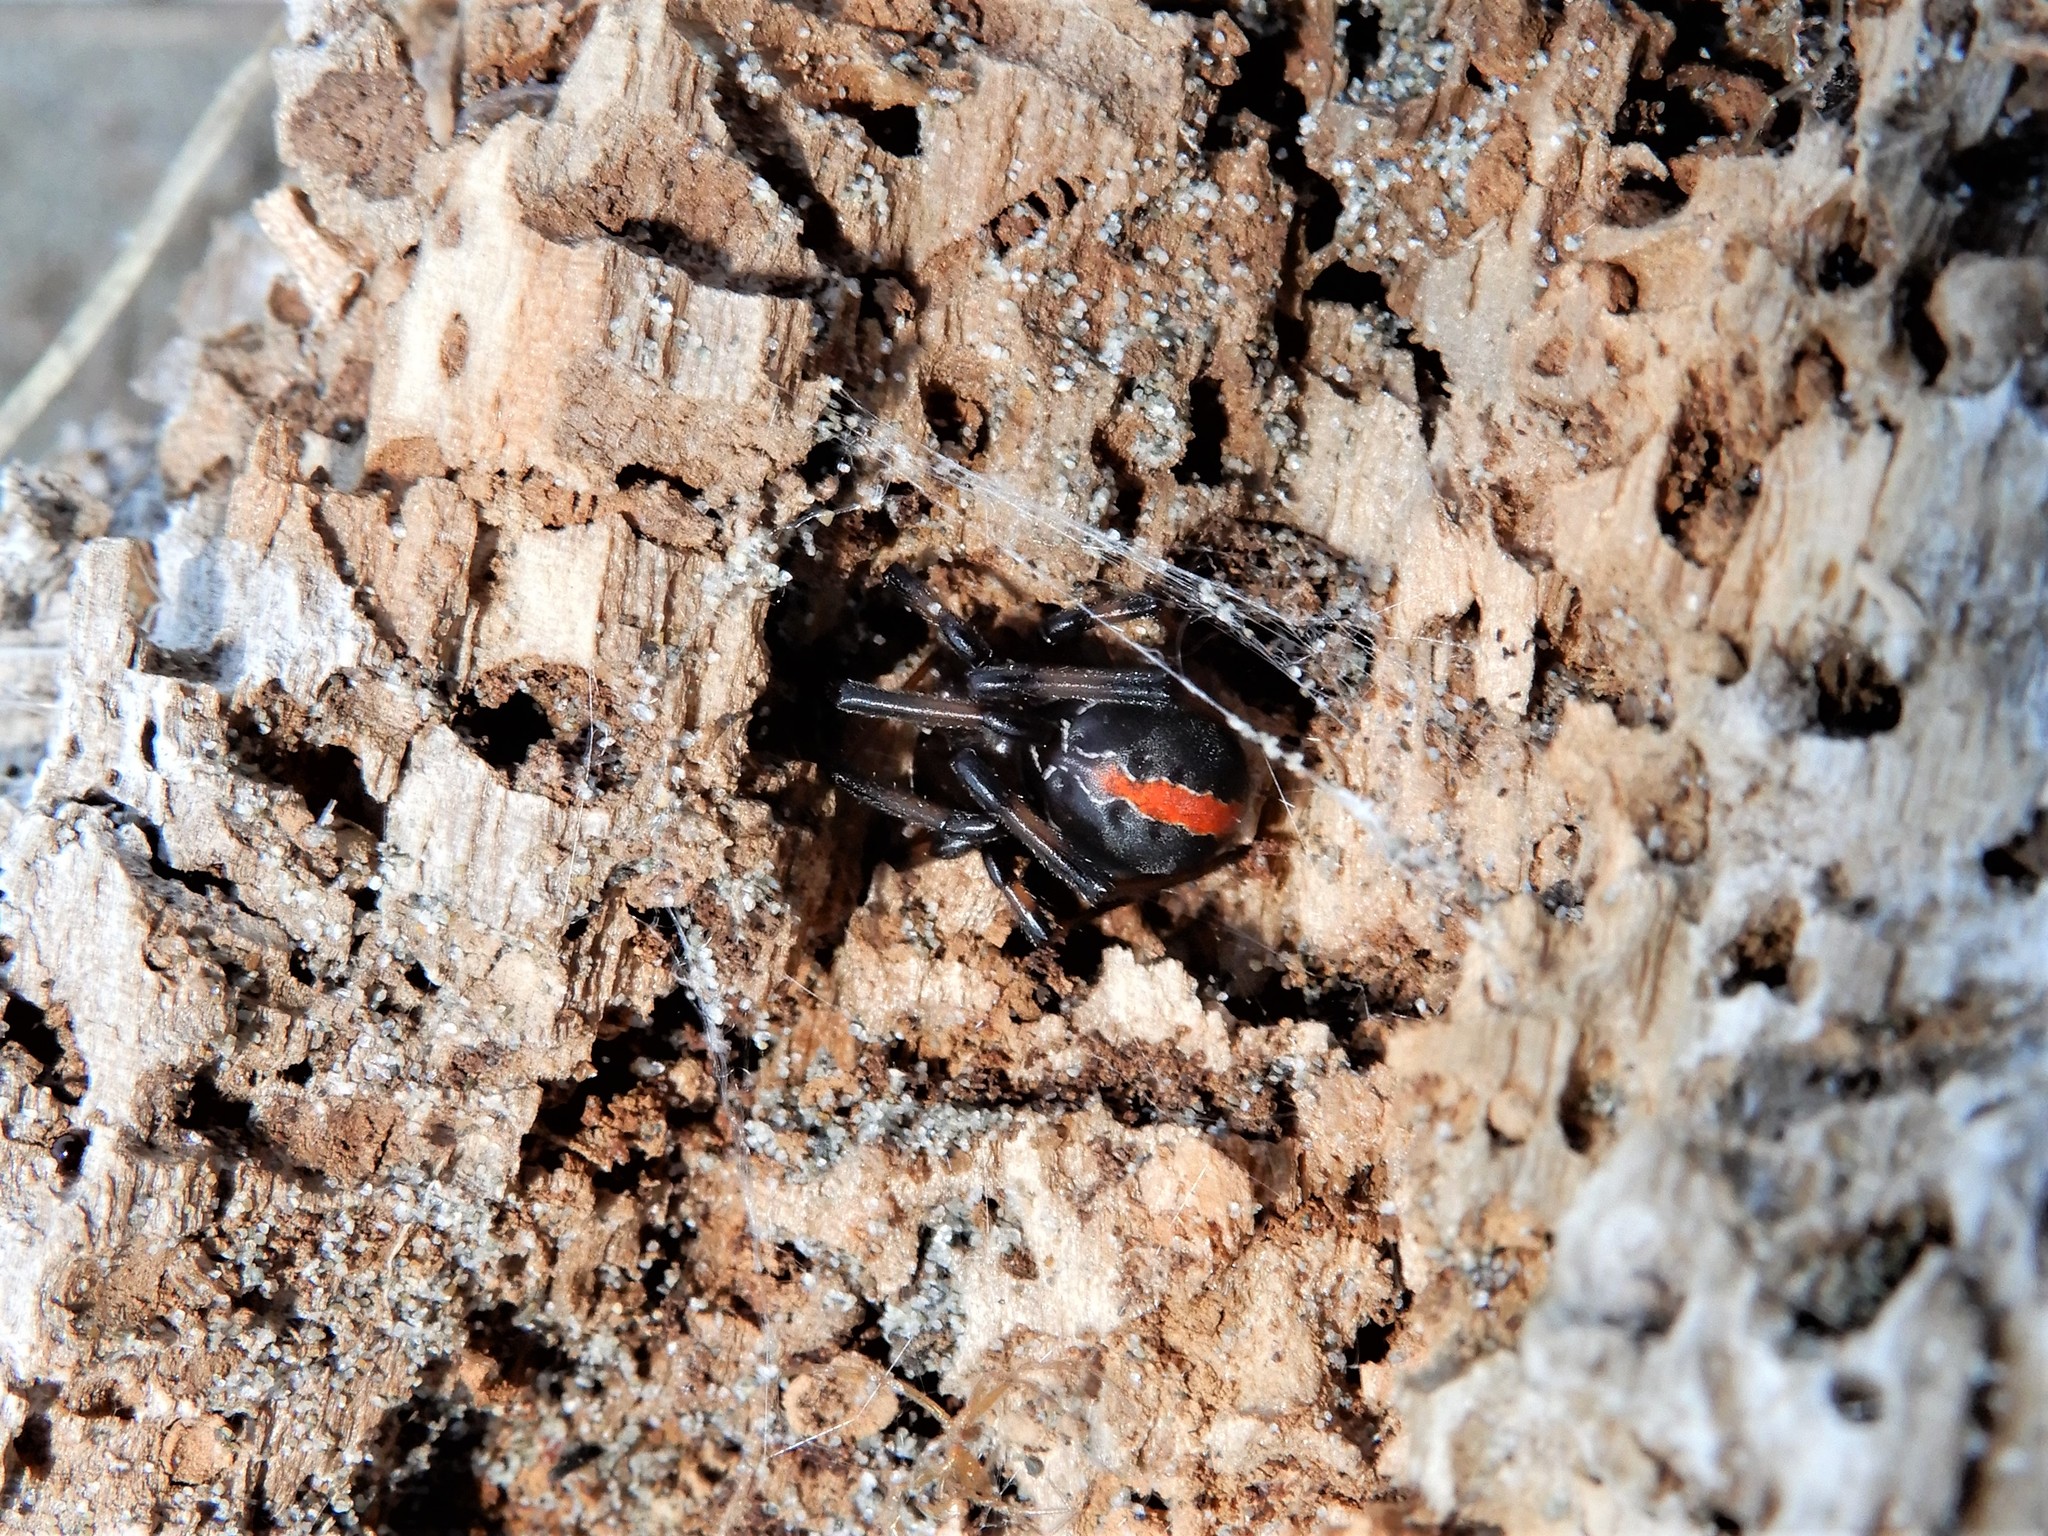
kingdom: Animalia
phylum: Arthropoda
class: Arachnida
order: Araneae
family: Theridiidae
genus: Latrodectus
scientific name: Latrodectus katipo
